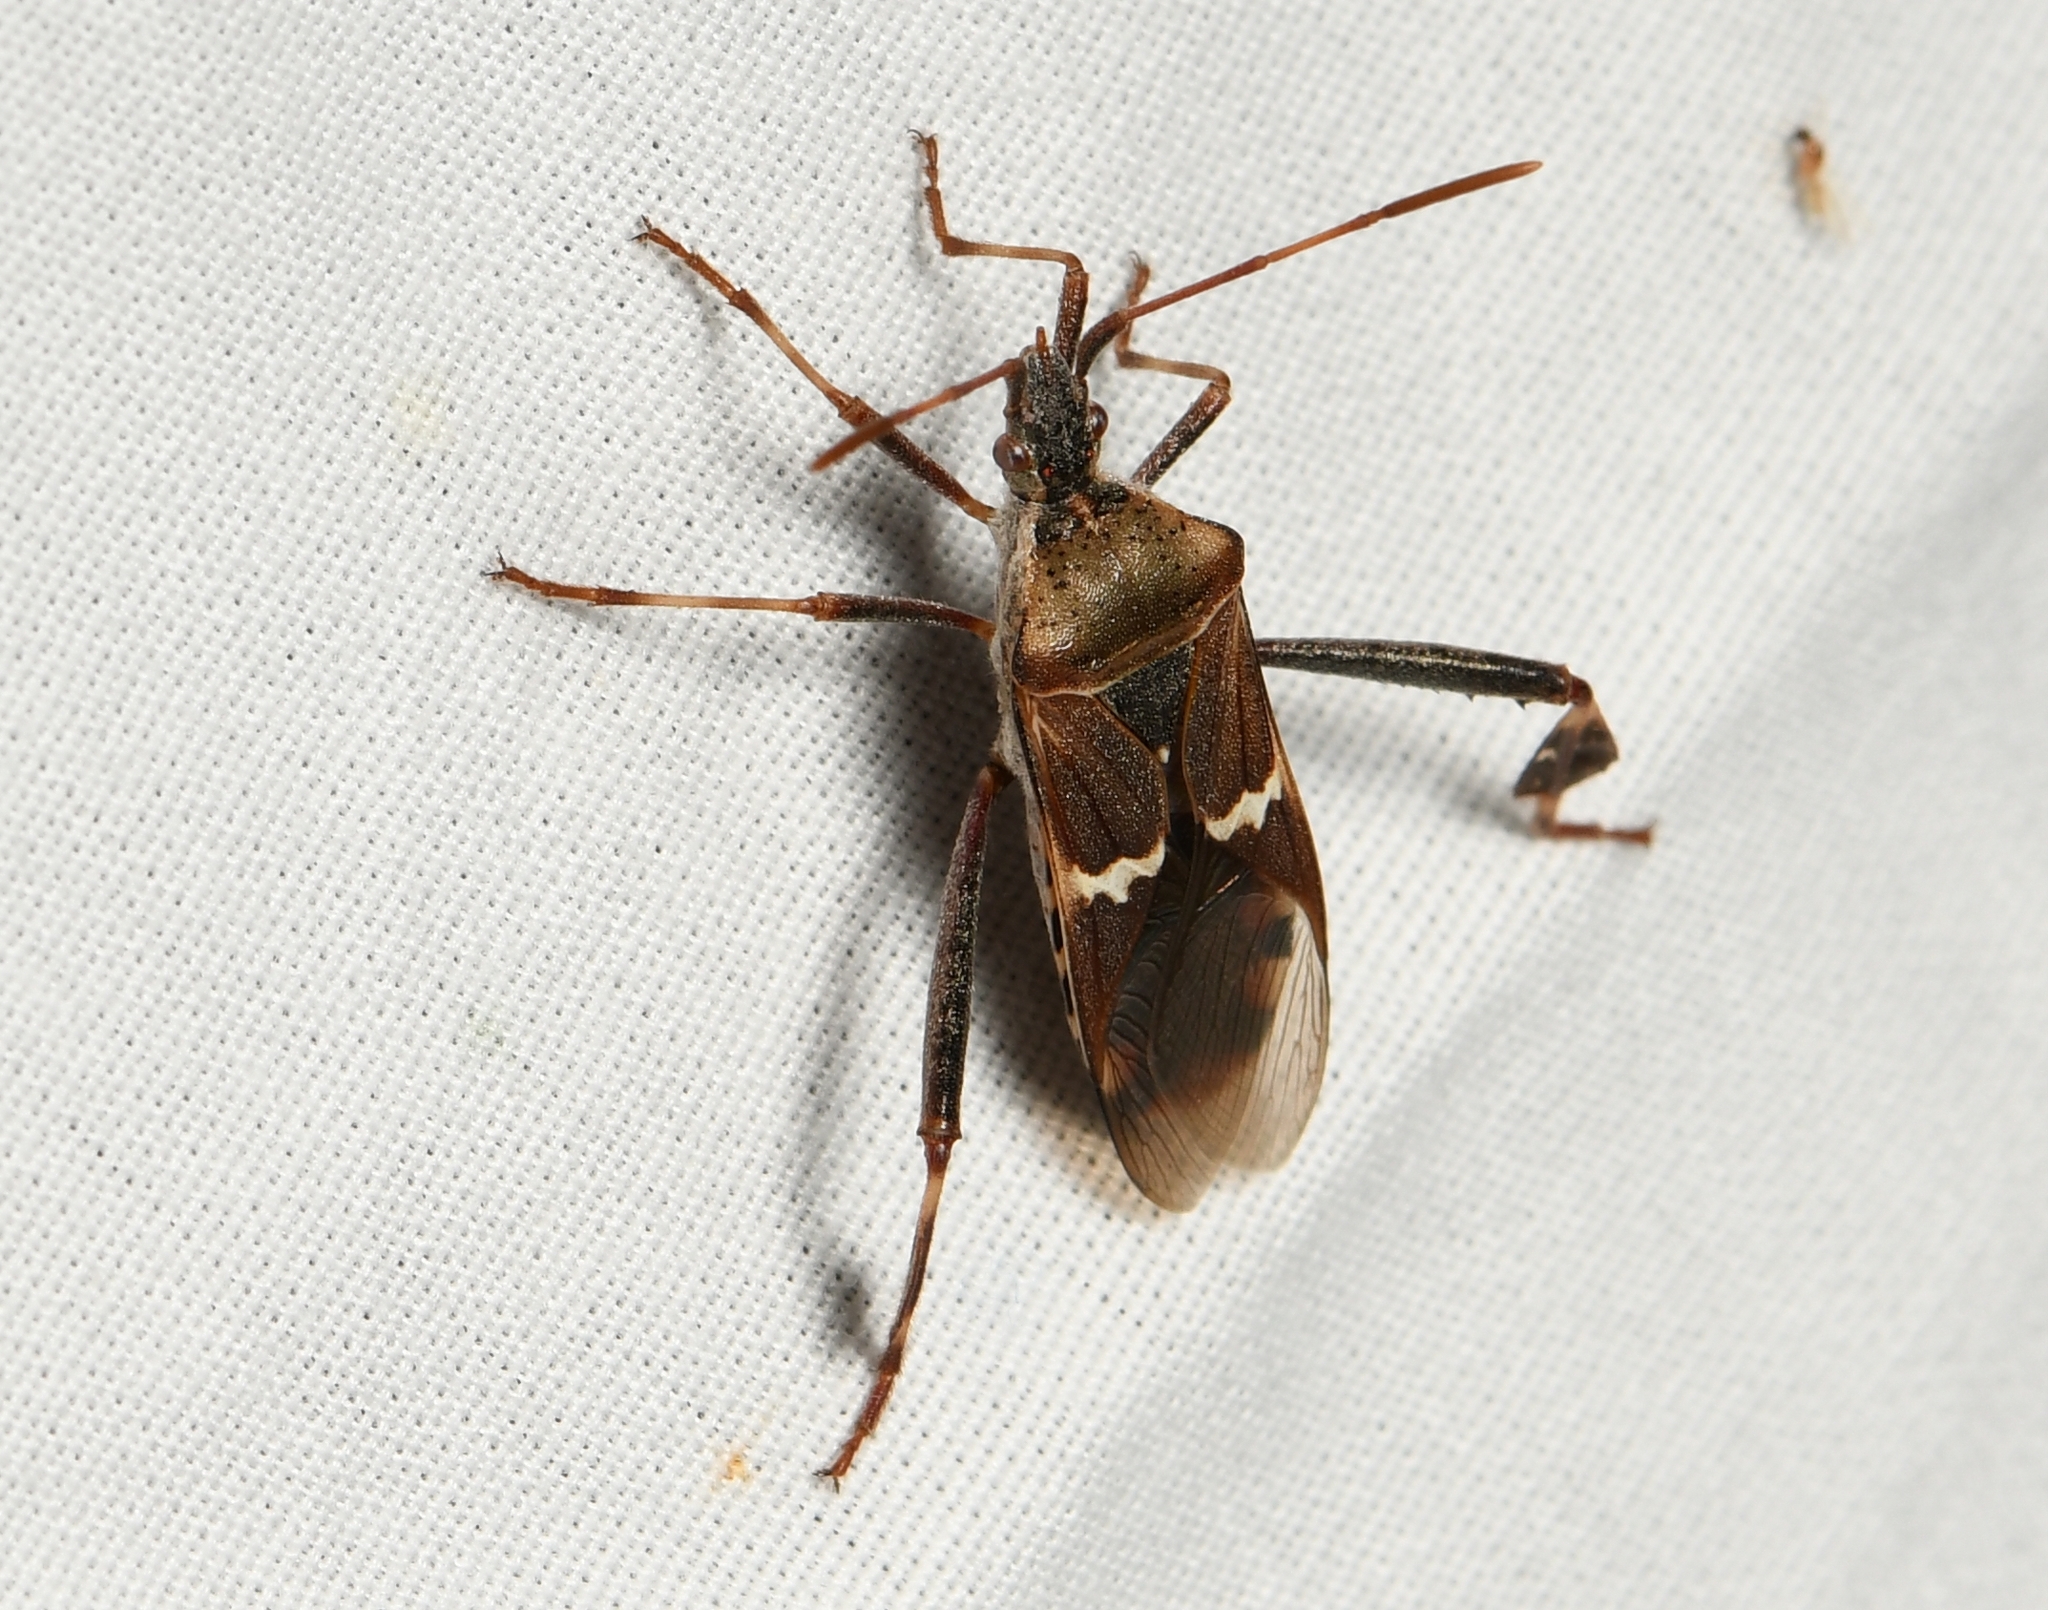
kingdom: Animalia
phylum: Arthropoda
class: Insecta
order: Hemiptera
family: Coreidae
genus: Leptoglossus
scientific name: Leptoglossus clypealis
